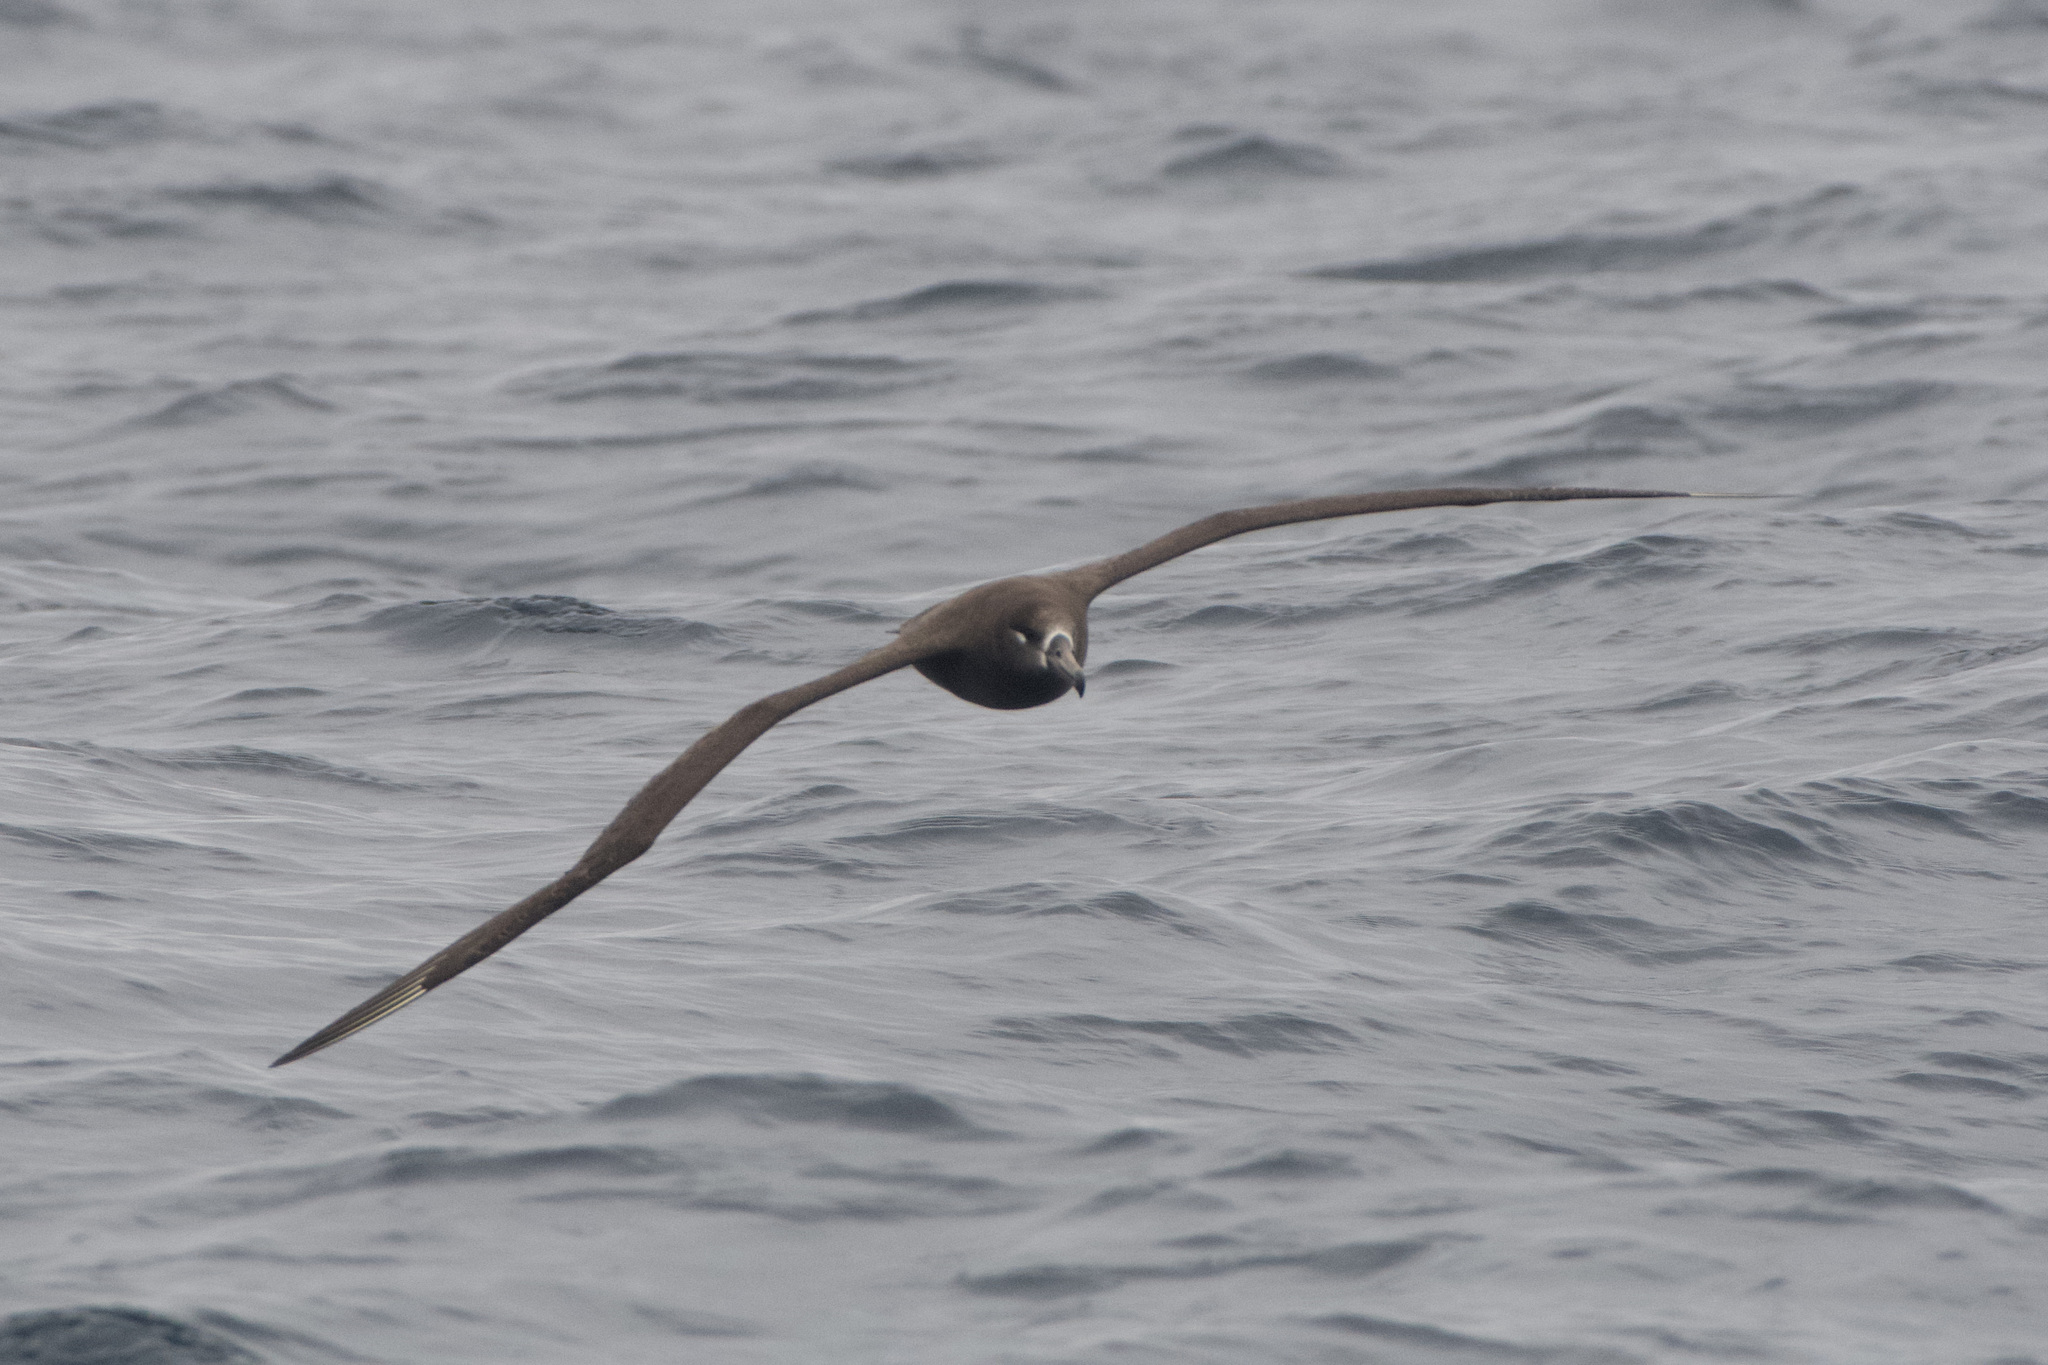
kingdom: Animalia
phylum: Chordata
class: Aves
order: Procellariiformes
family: Diomedeidae
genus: Phoebastria
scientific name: Phoebastria nigripes
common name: Black-footed albatross
